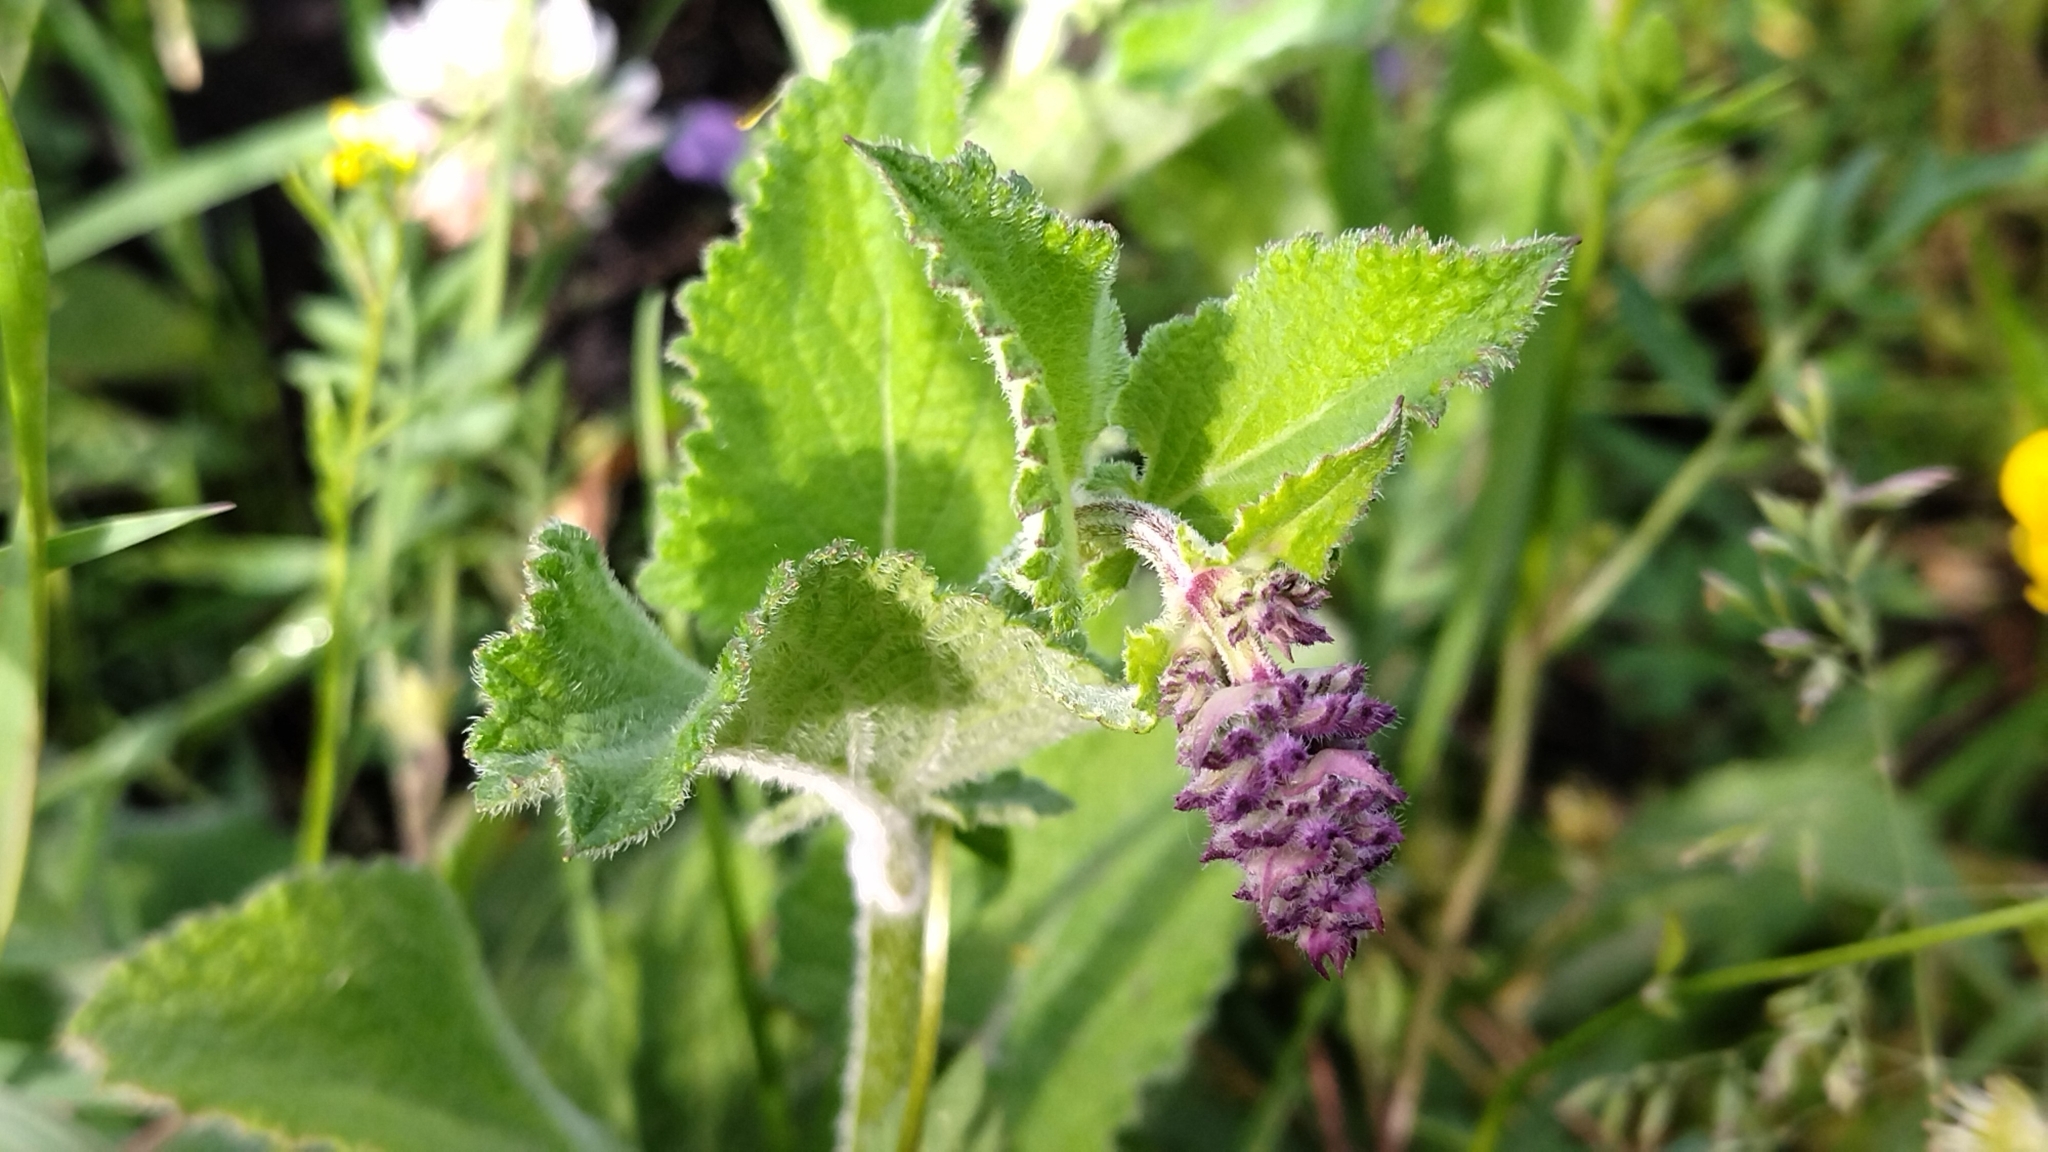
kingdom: Plantae
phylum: Tracheophyta
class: Magnoliopsida
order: Lamiales
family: Lamiaceae
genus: Salvia
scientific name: Salvia verticillata
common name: Whorled clary
